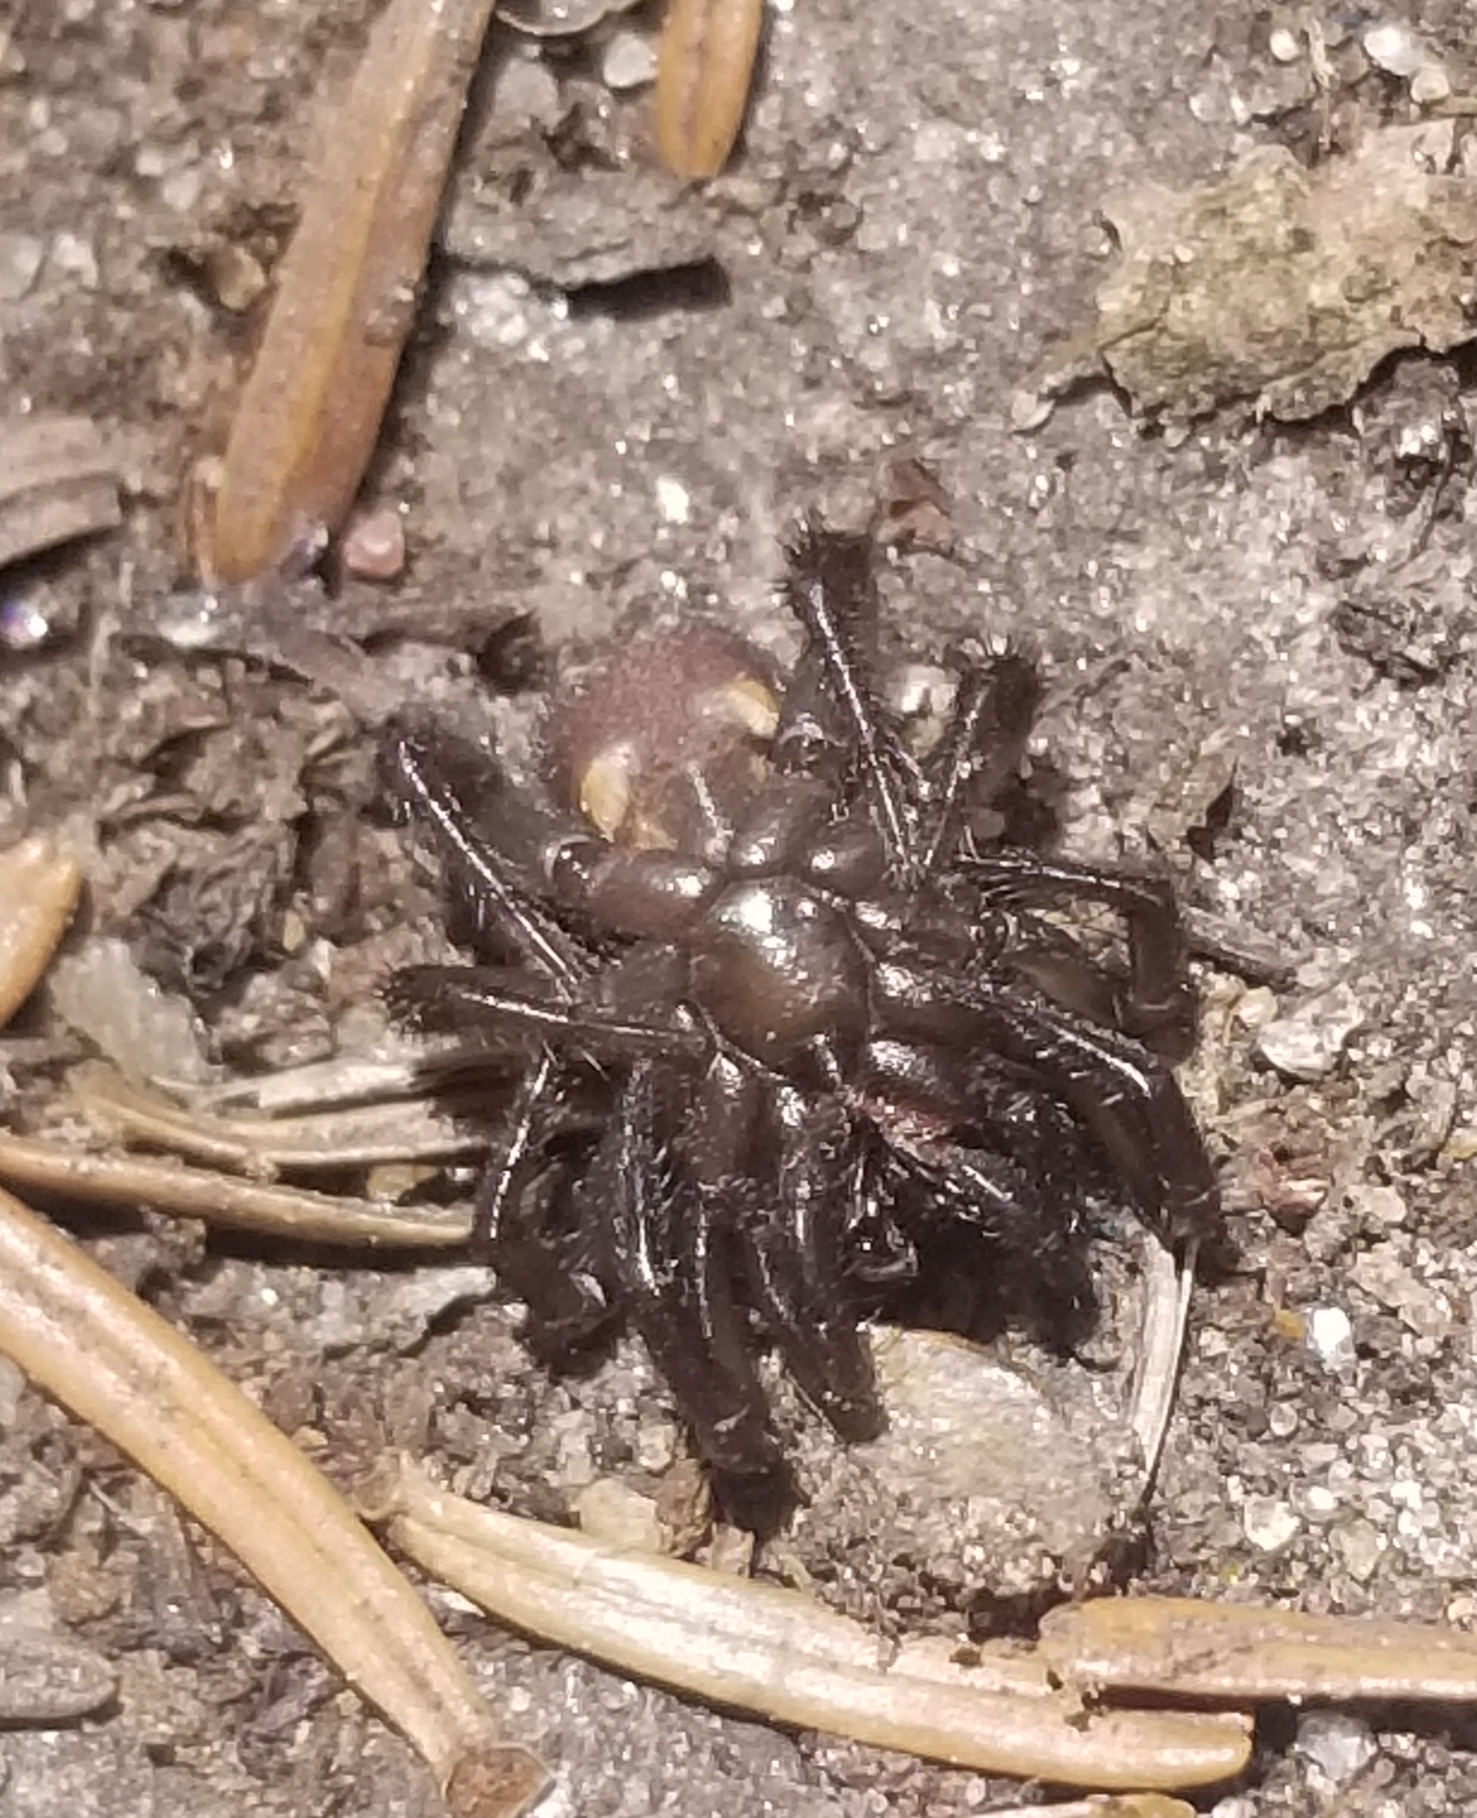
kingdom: Animalia
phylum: Arthropoda
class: Arachnida
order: Araneae
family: Antrodiaetidae
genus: Antrodiaetus
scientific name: Antrodiaetus unicolor
